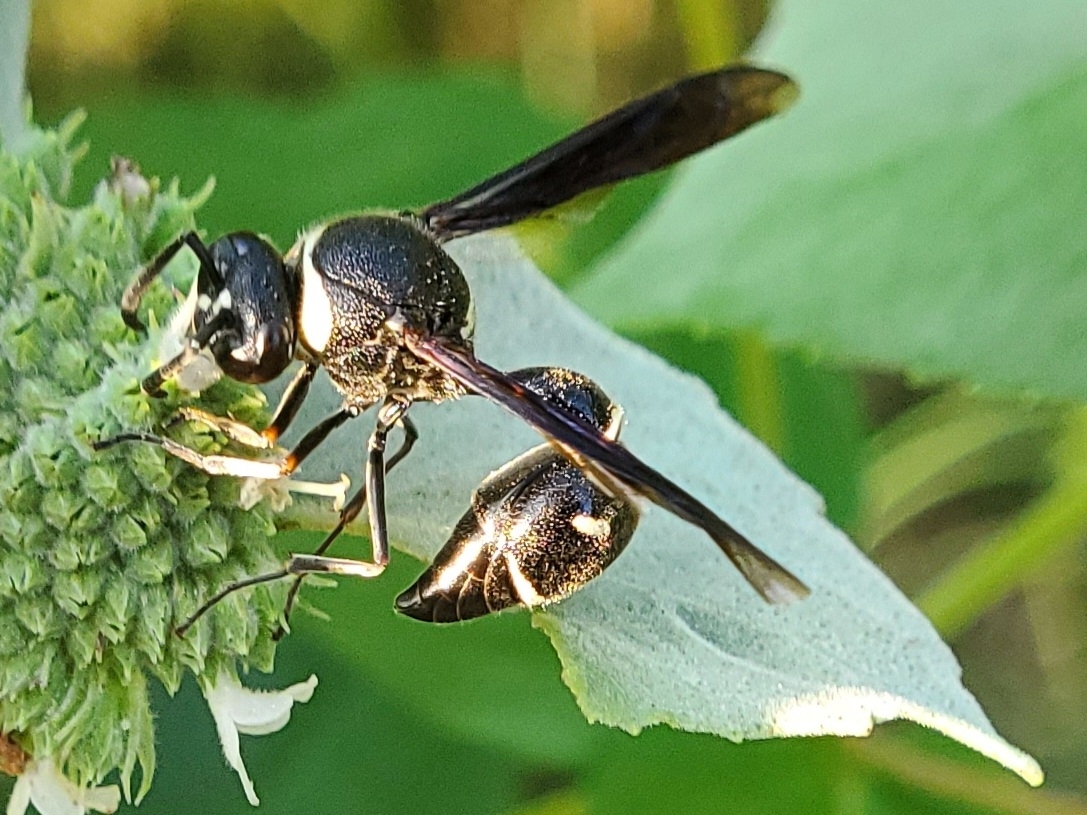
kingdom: Animalia
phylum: Arthropoda
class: Insecta
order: Hymenoptera
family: Vespidae
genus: Eumenes
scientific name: Eumenes fraternus
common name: Fraternal potter wasp
